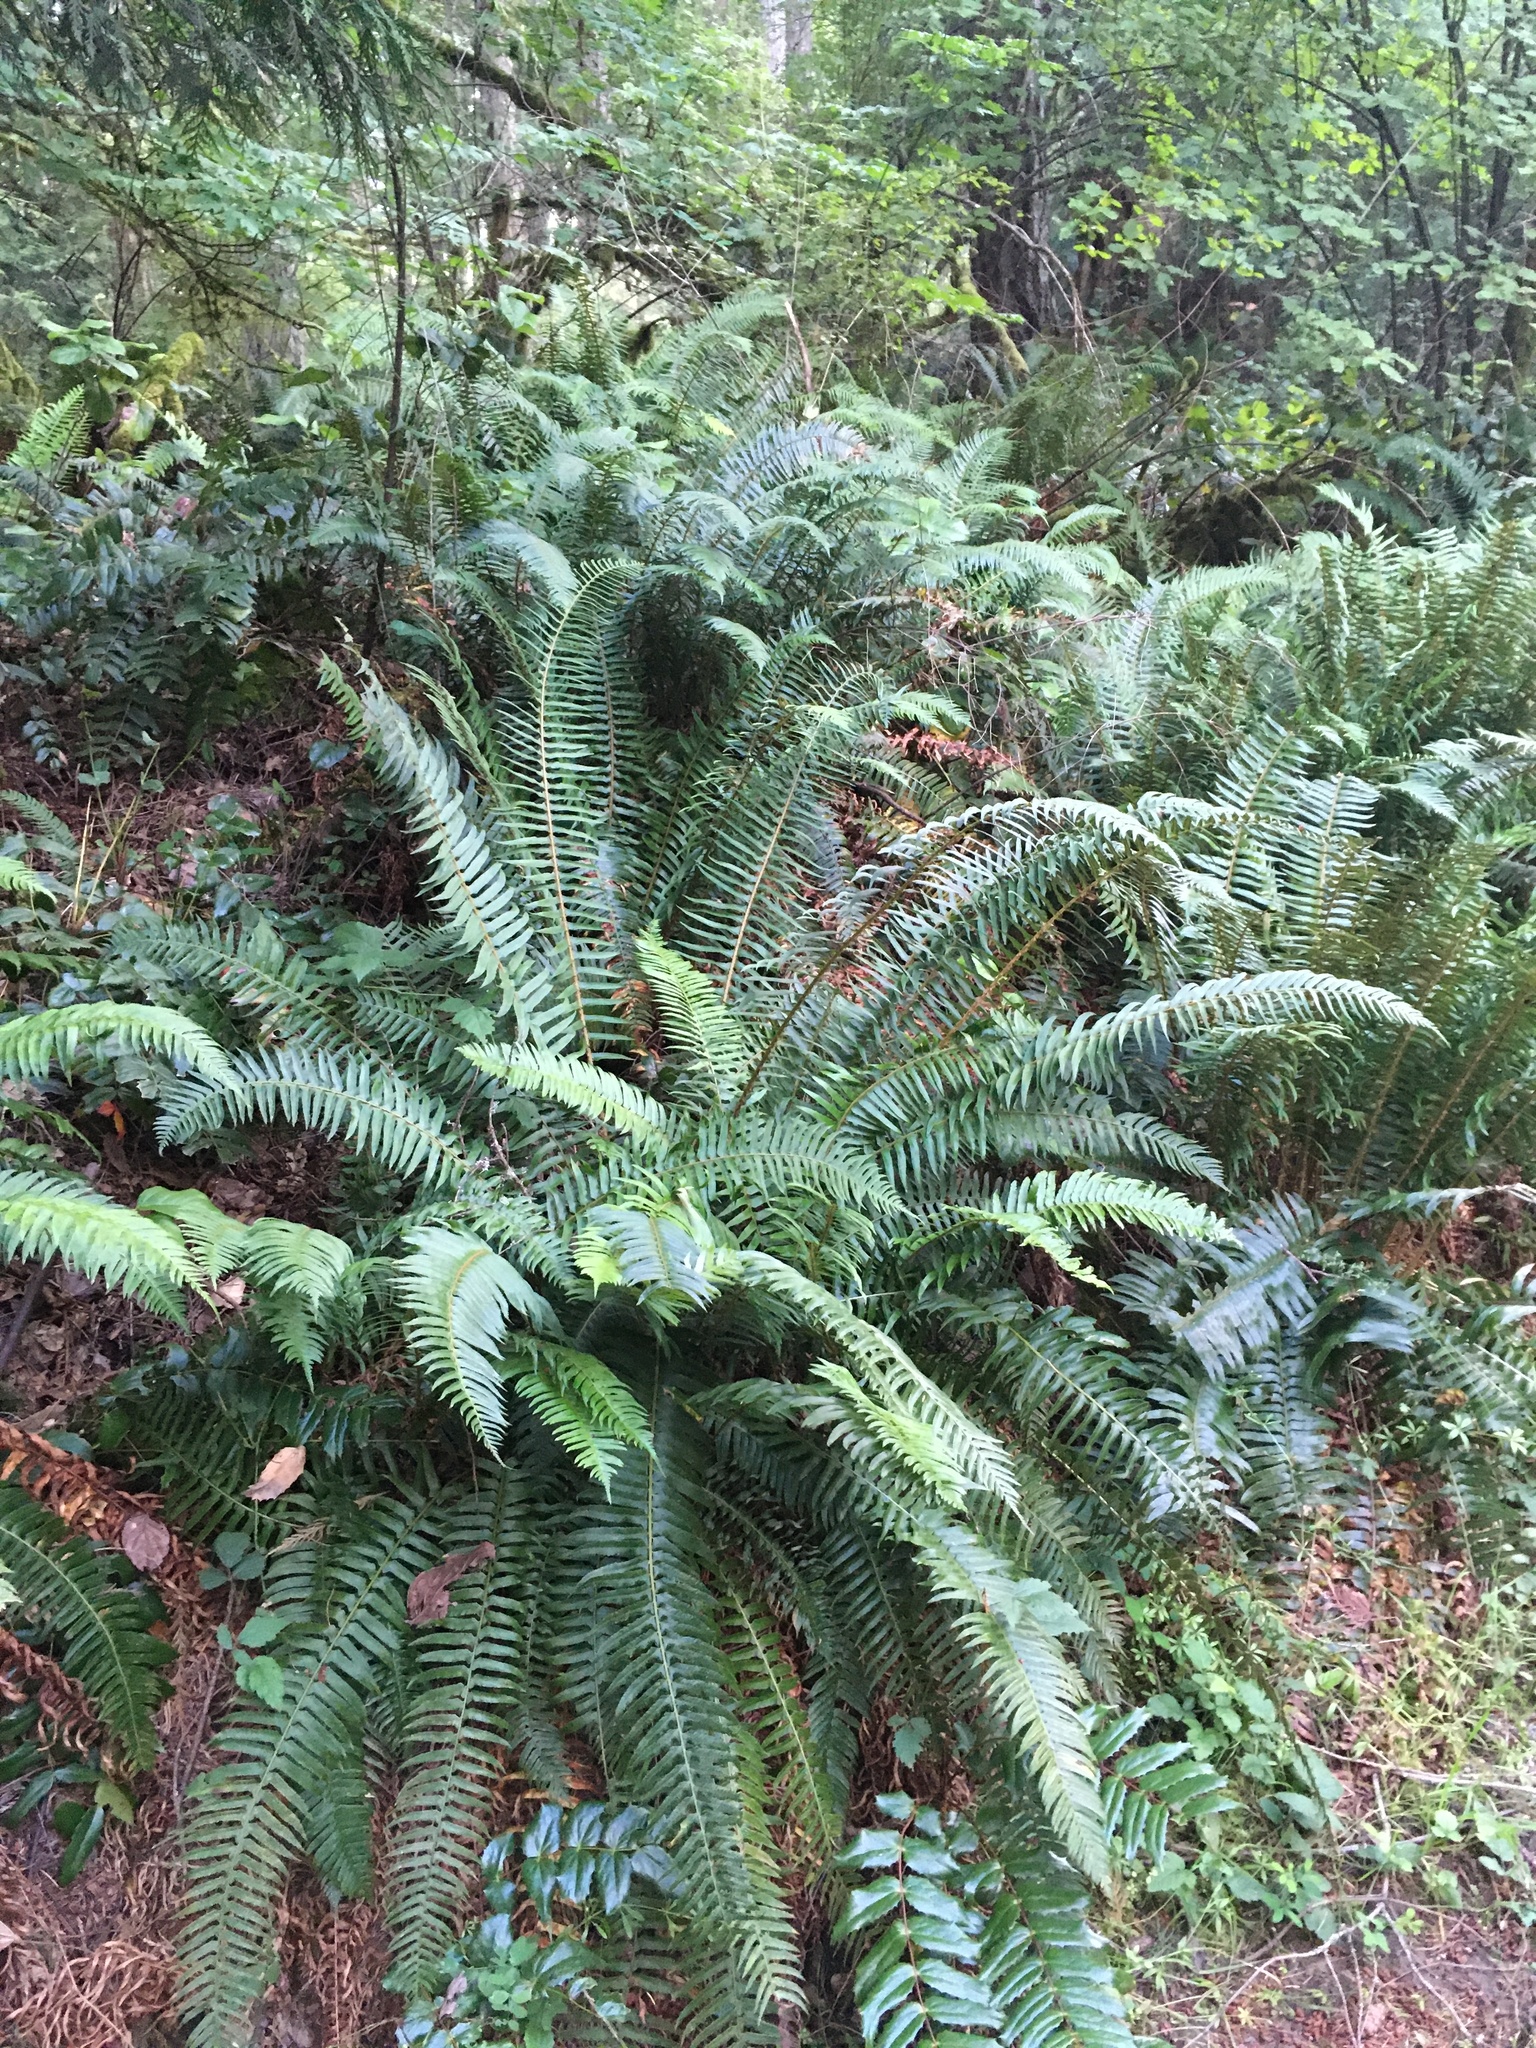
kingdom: Plantae
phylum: Tracheophyta
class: Polypodiopsida
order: Polypodiales
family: Dryopteridaceae
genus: Polystichum
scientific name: Polystichum munitum
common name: Western sword-fern
